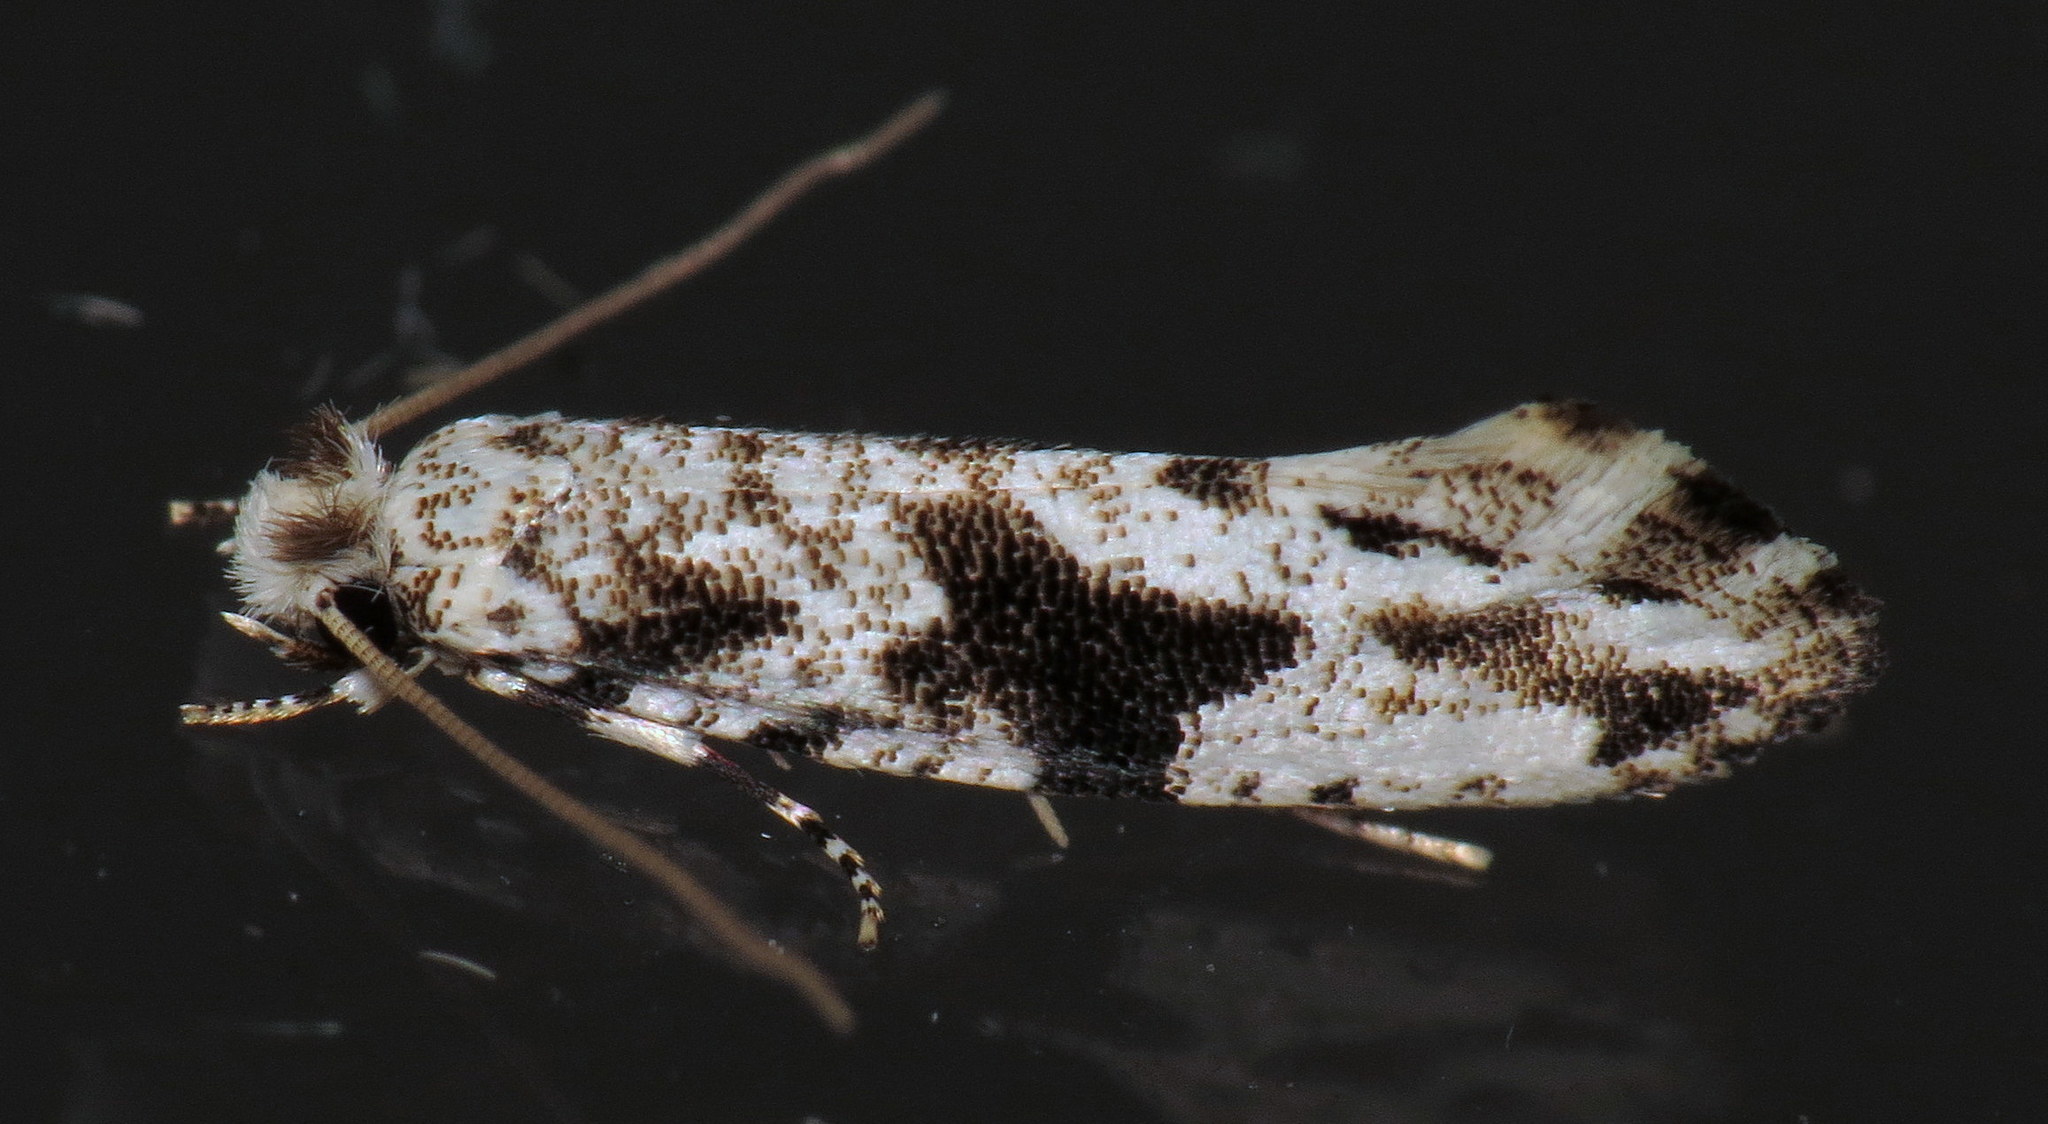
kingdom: Animalia
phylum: Arthropoda
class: Insecta
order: Lepidoptera
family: Tineidae
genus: Nemapogon
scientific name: Nemapogon angulifasciella
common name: Black-patched nemapogon
